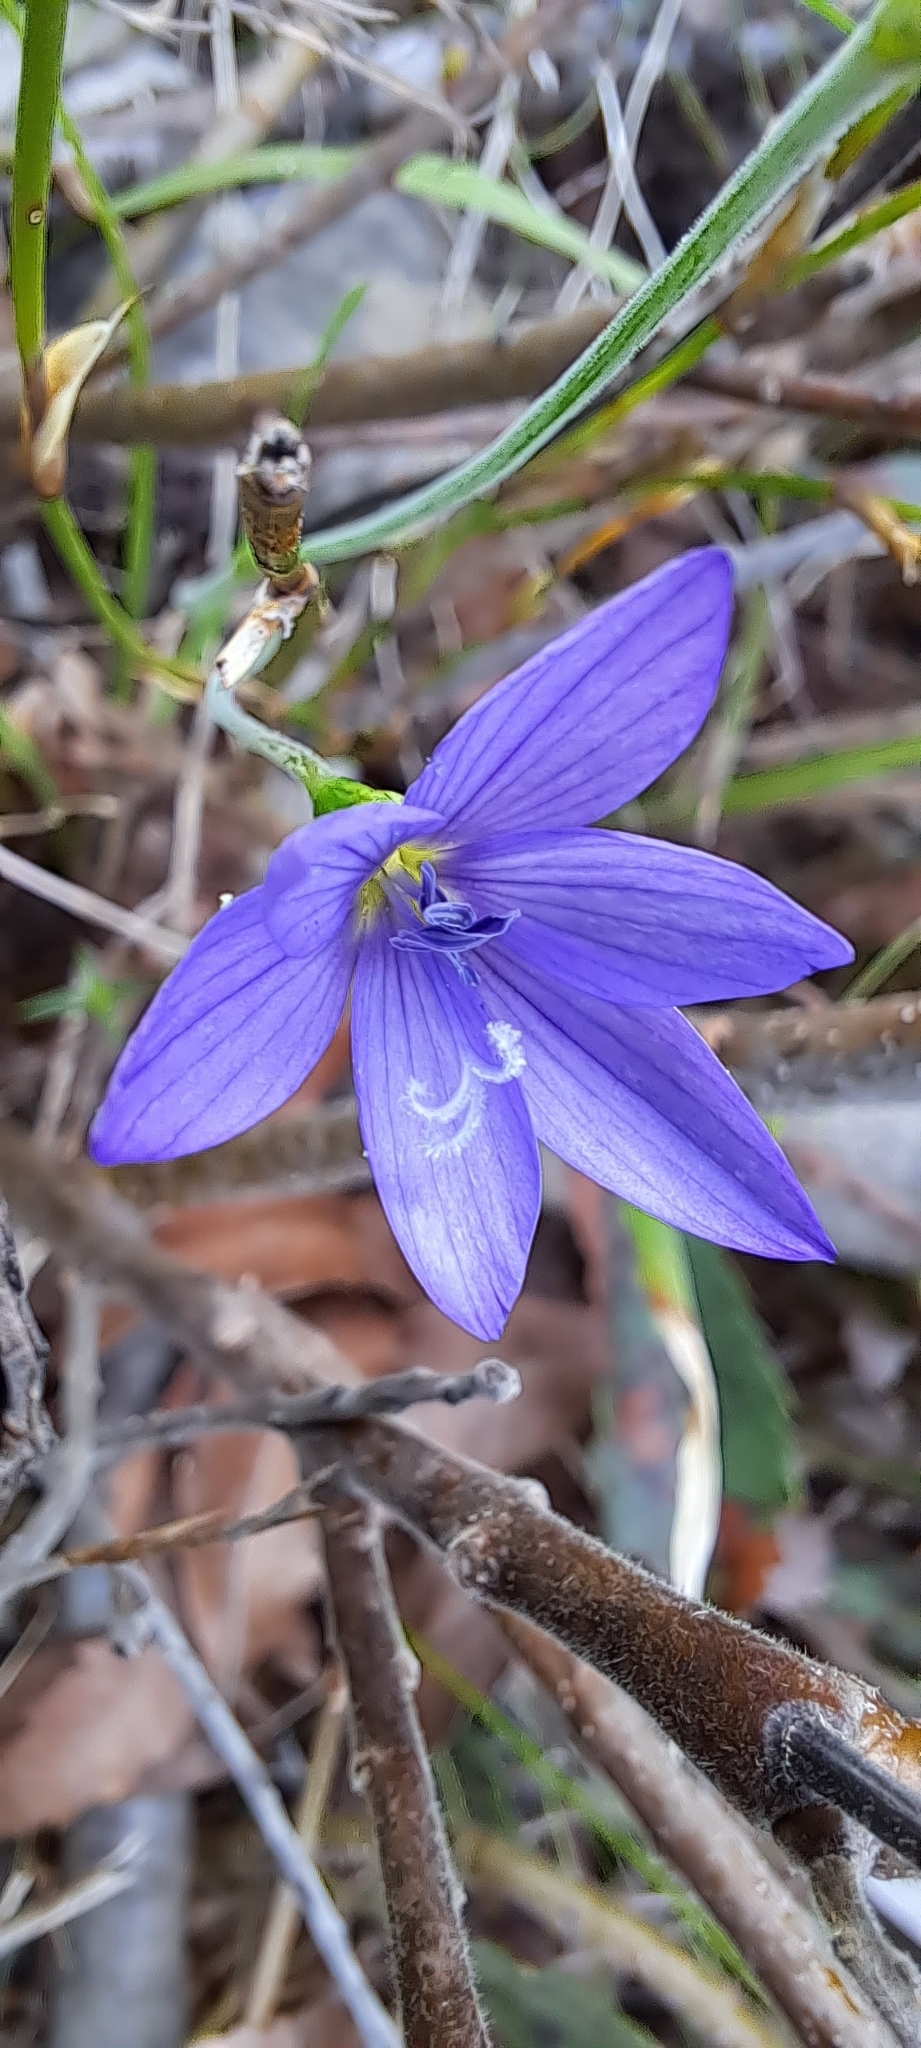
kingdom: Plantae
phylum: Tracheophyta
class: Liliopsida
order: Asparagales
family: Iridaceae
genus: Geissorhiza
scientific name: Geissorhiza aspera
